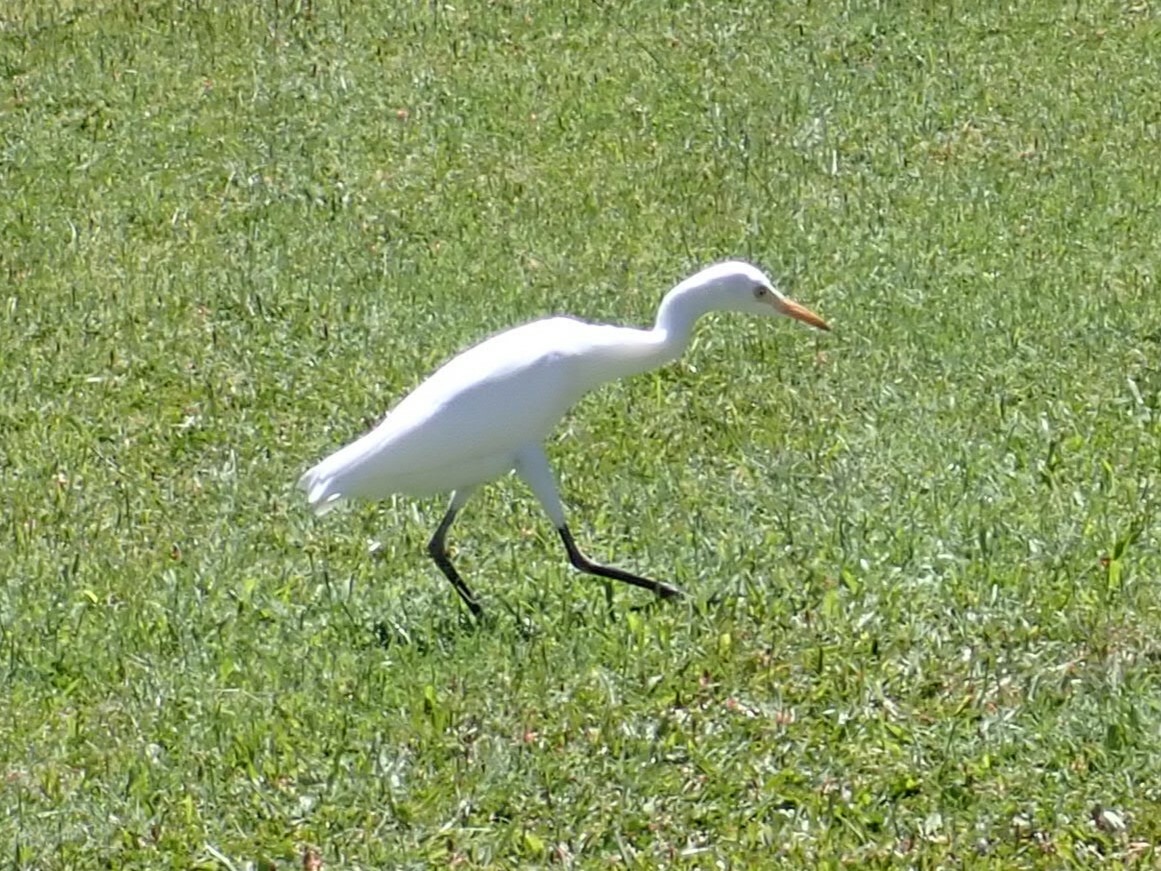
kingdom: Animalia
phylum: Chordata
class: Aves
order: Pelecaniformes
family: Ardeidae
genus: Bubulcus
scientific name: Bubulcus ibis
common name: Cattle egret
